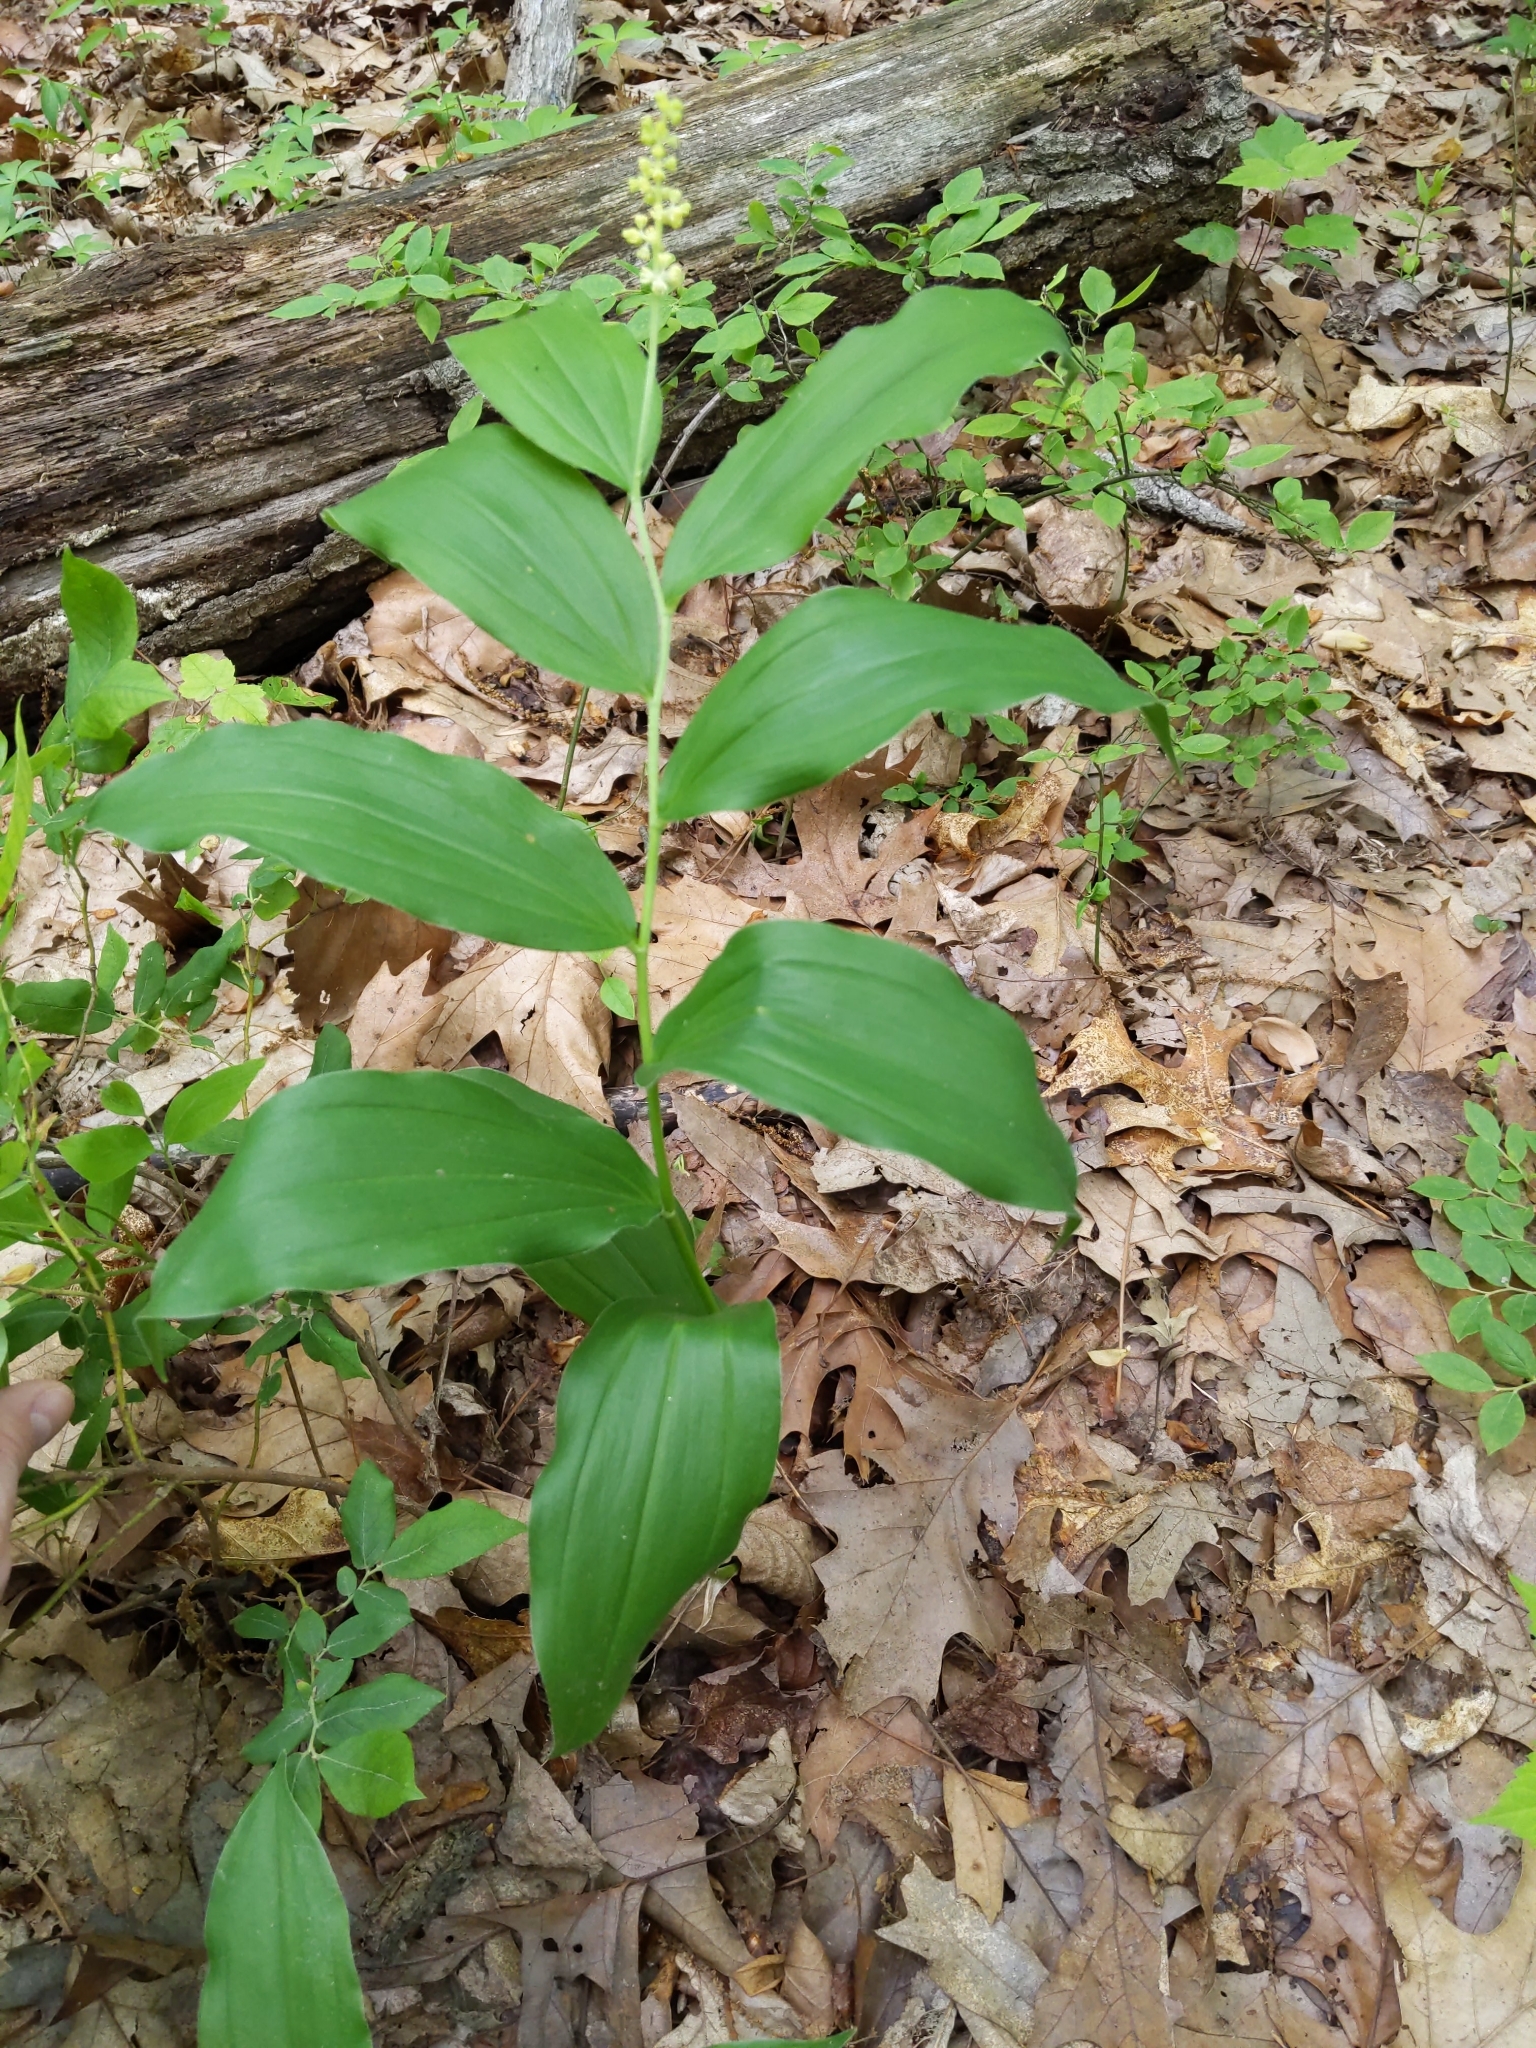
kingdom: Plantae
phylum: Tracheophyta
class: Liliopsida
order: Asparagales
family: Asparagaceae
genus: Maianthemum
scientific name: Maianthemum racemosum
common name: False spikenard
